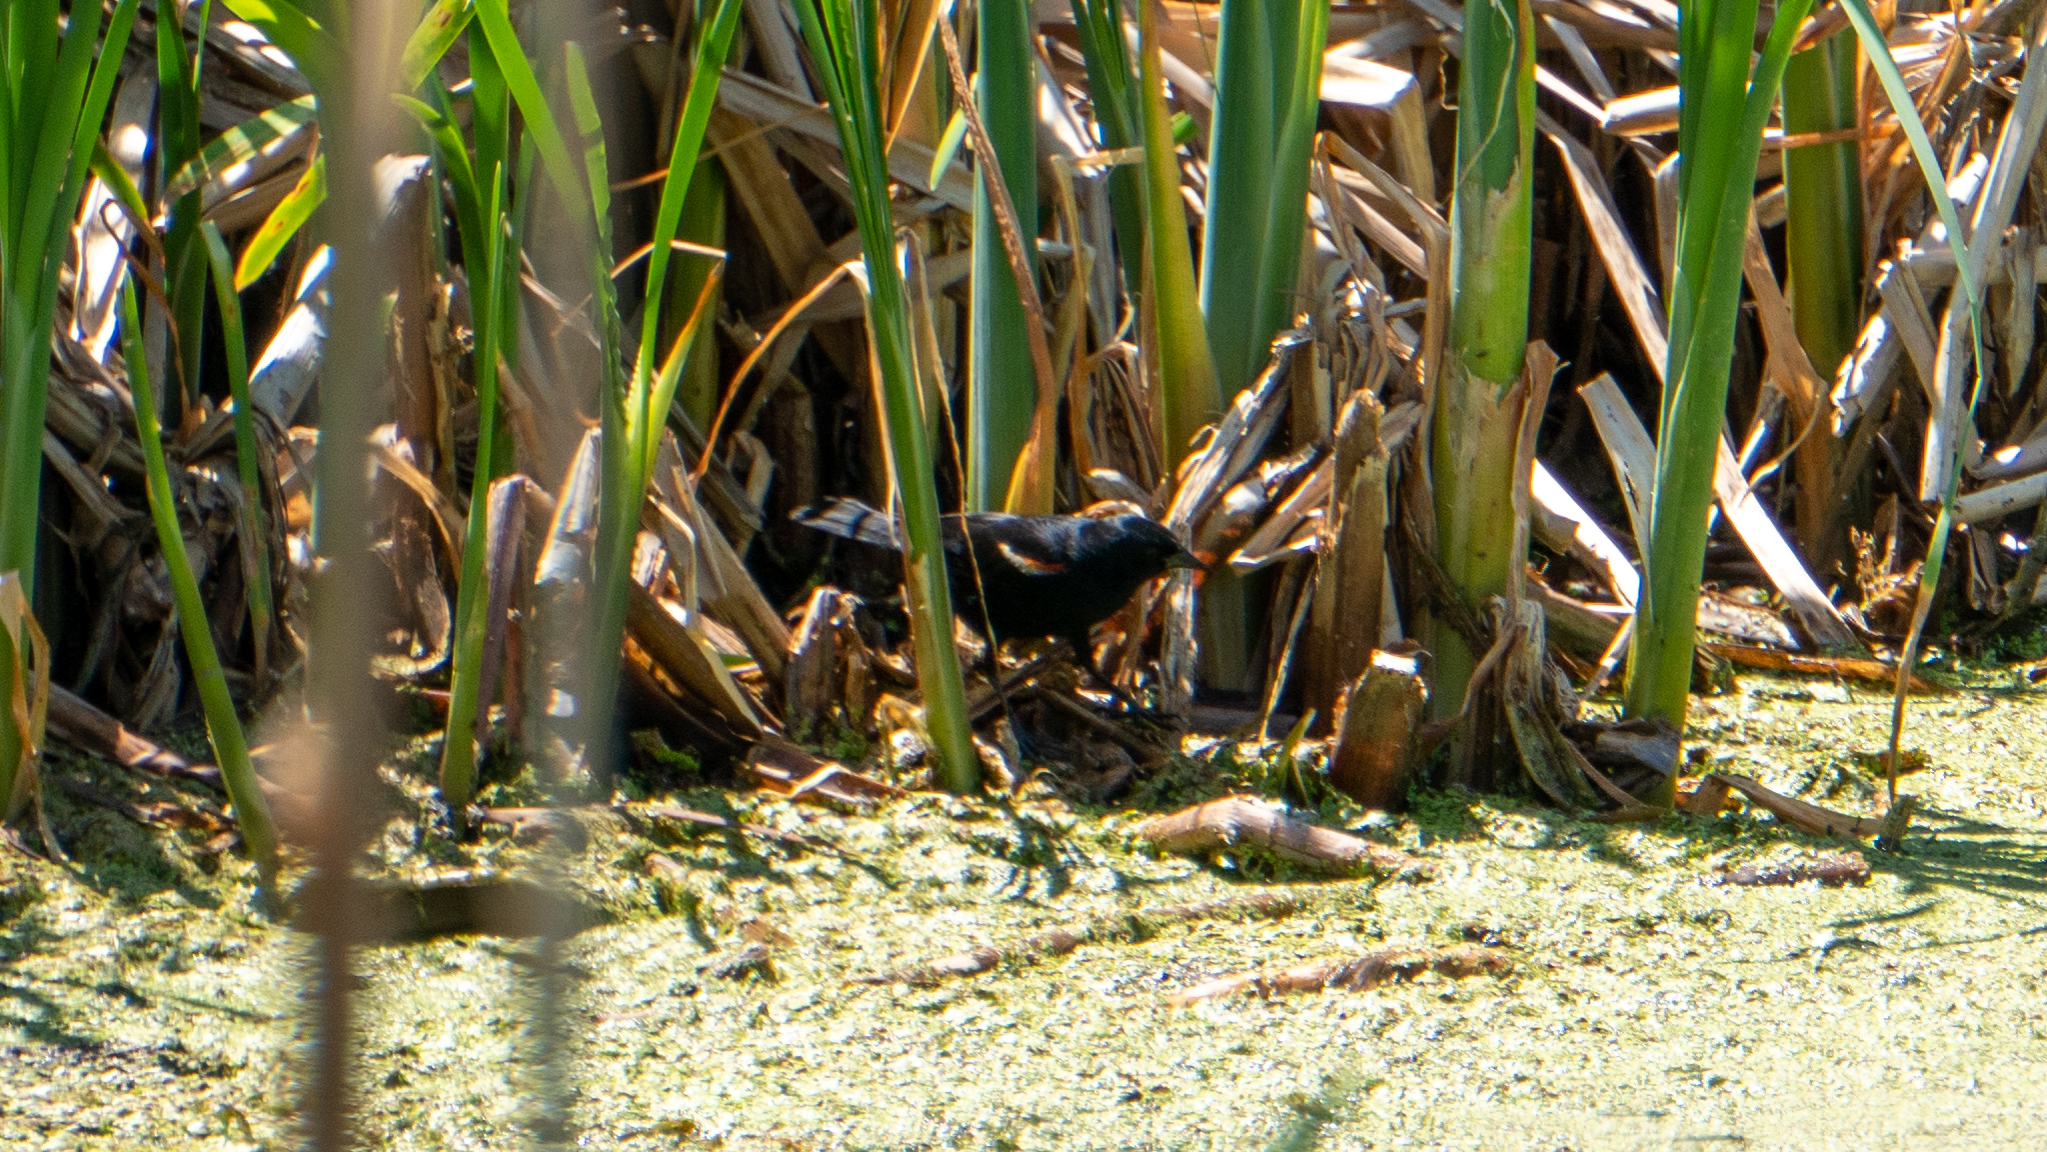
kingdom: Animalia
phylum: Chordata
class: Aves
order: Passeriformes
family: Icteridae
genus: Agelaius
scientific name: Agelaius phoeniceus
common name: Red-winged blackbird
